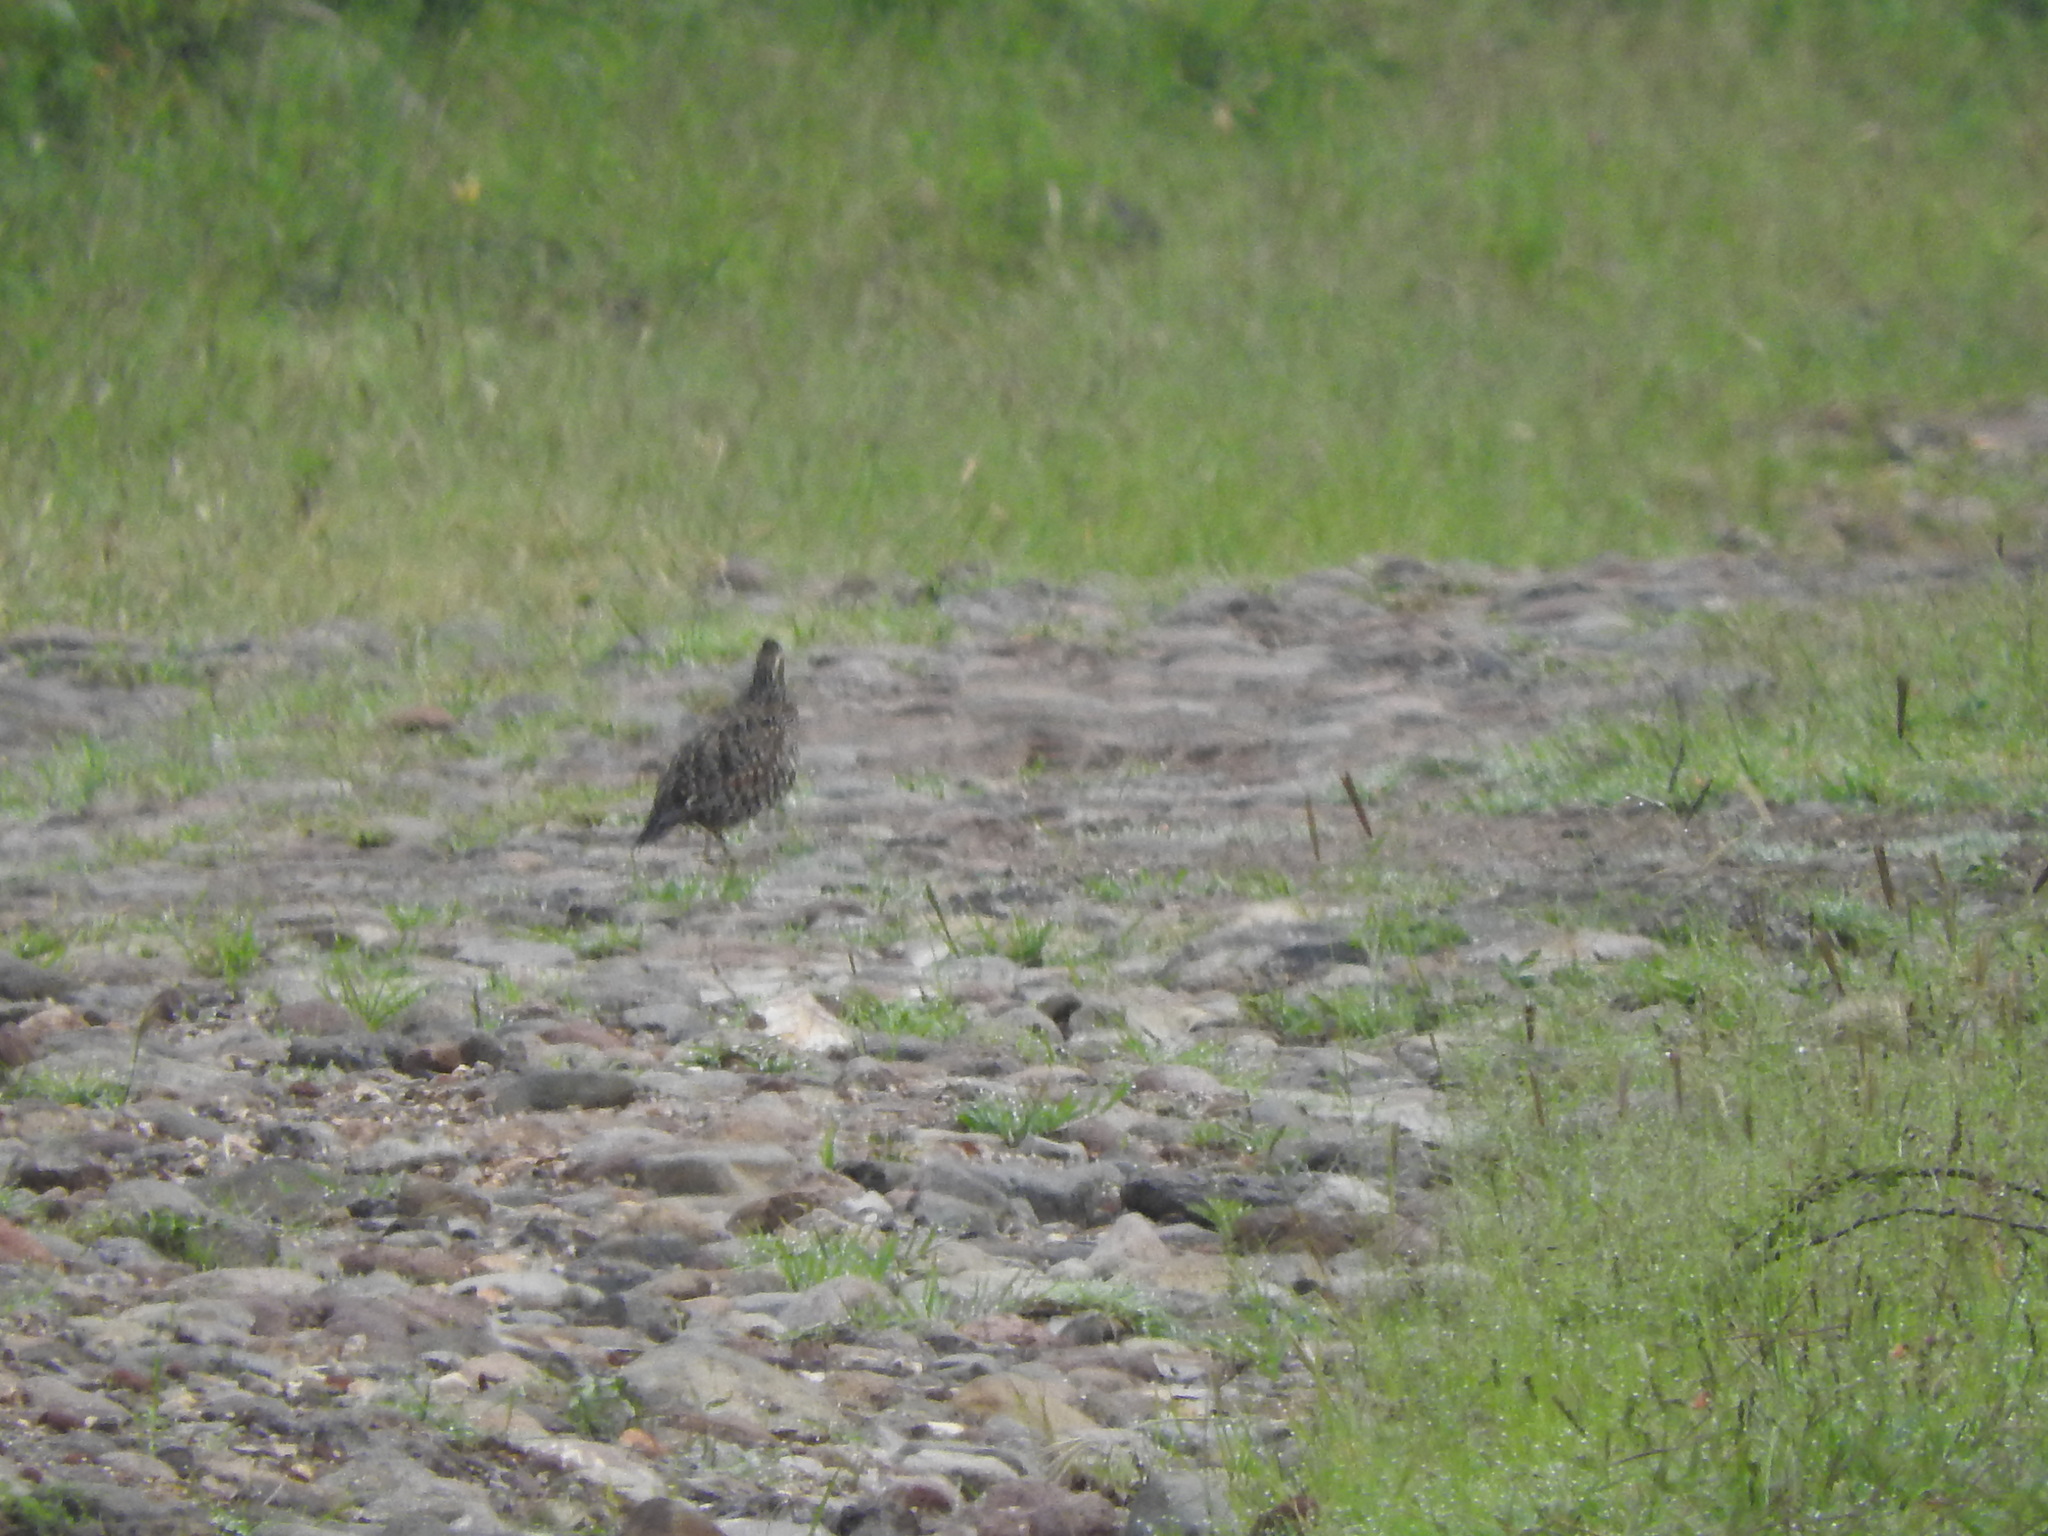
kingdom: Animalia
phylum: Chordata
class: Aves
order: Galliformes
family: Odontophoridae
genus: Colinus
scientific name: Colinus virginianus
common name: Northern bobwhite
